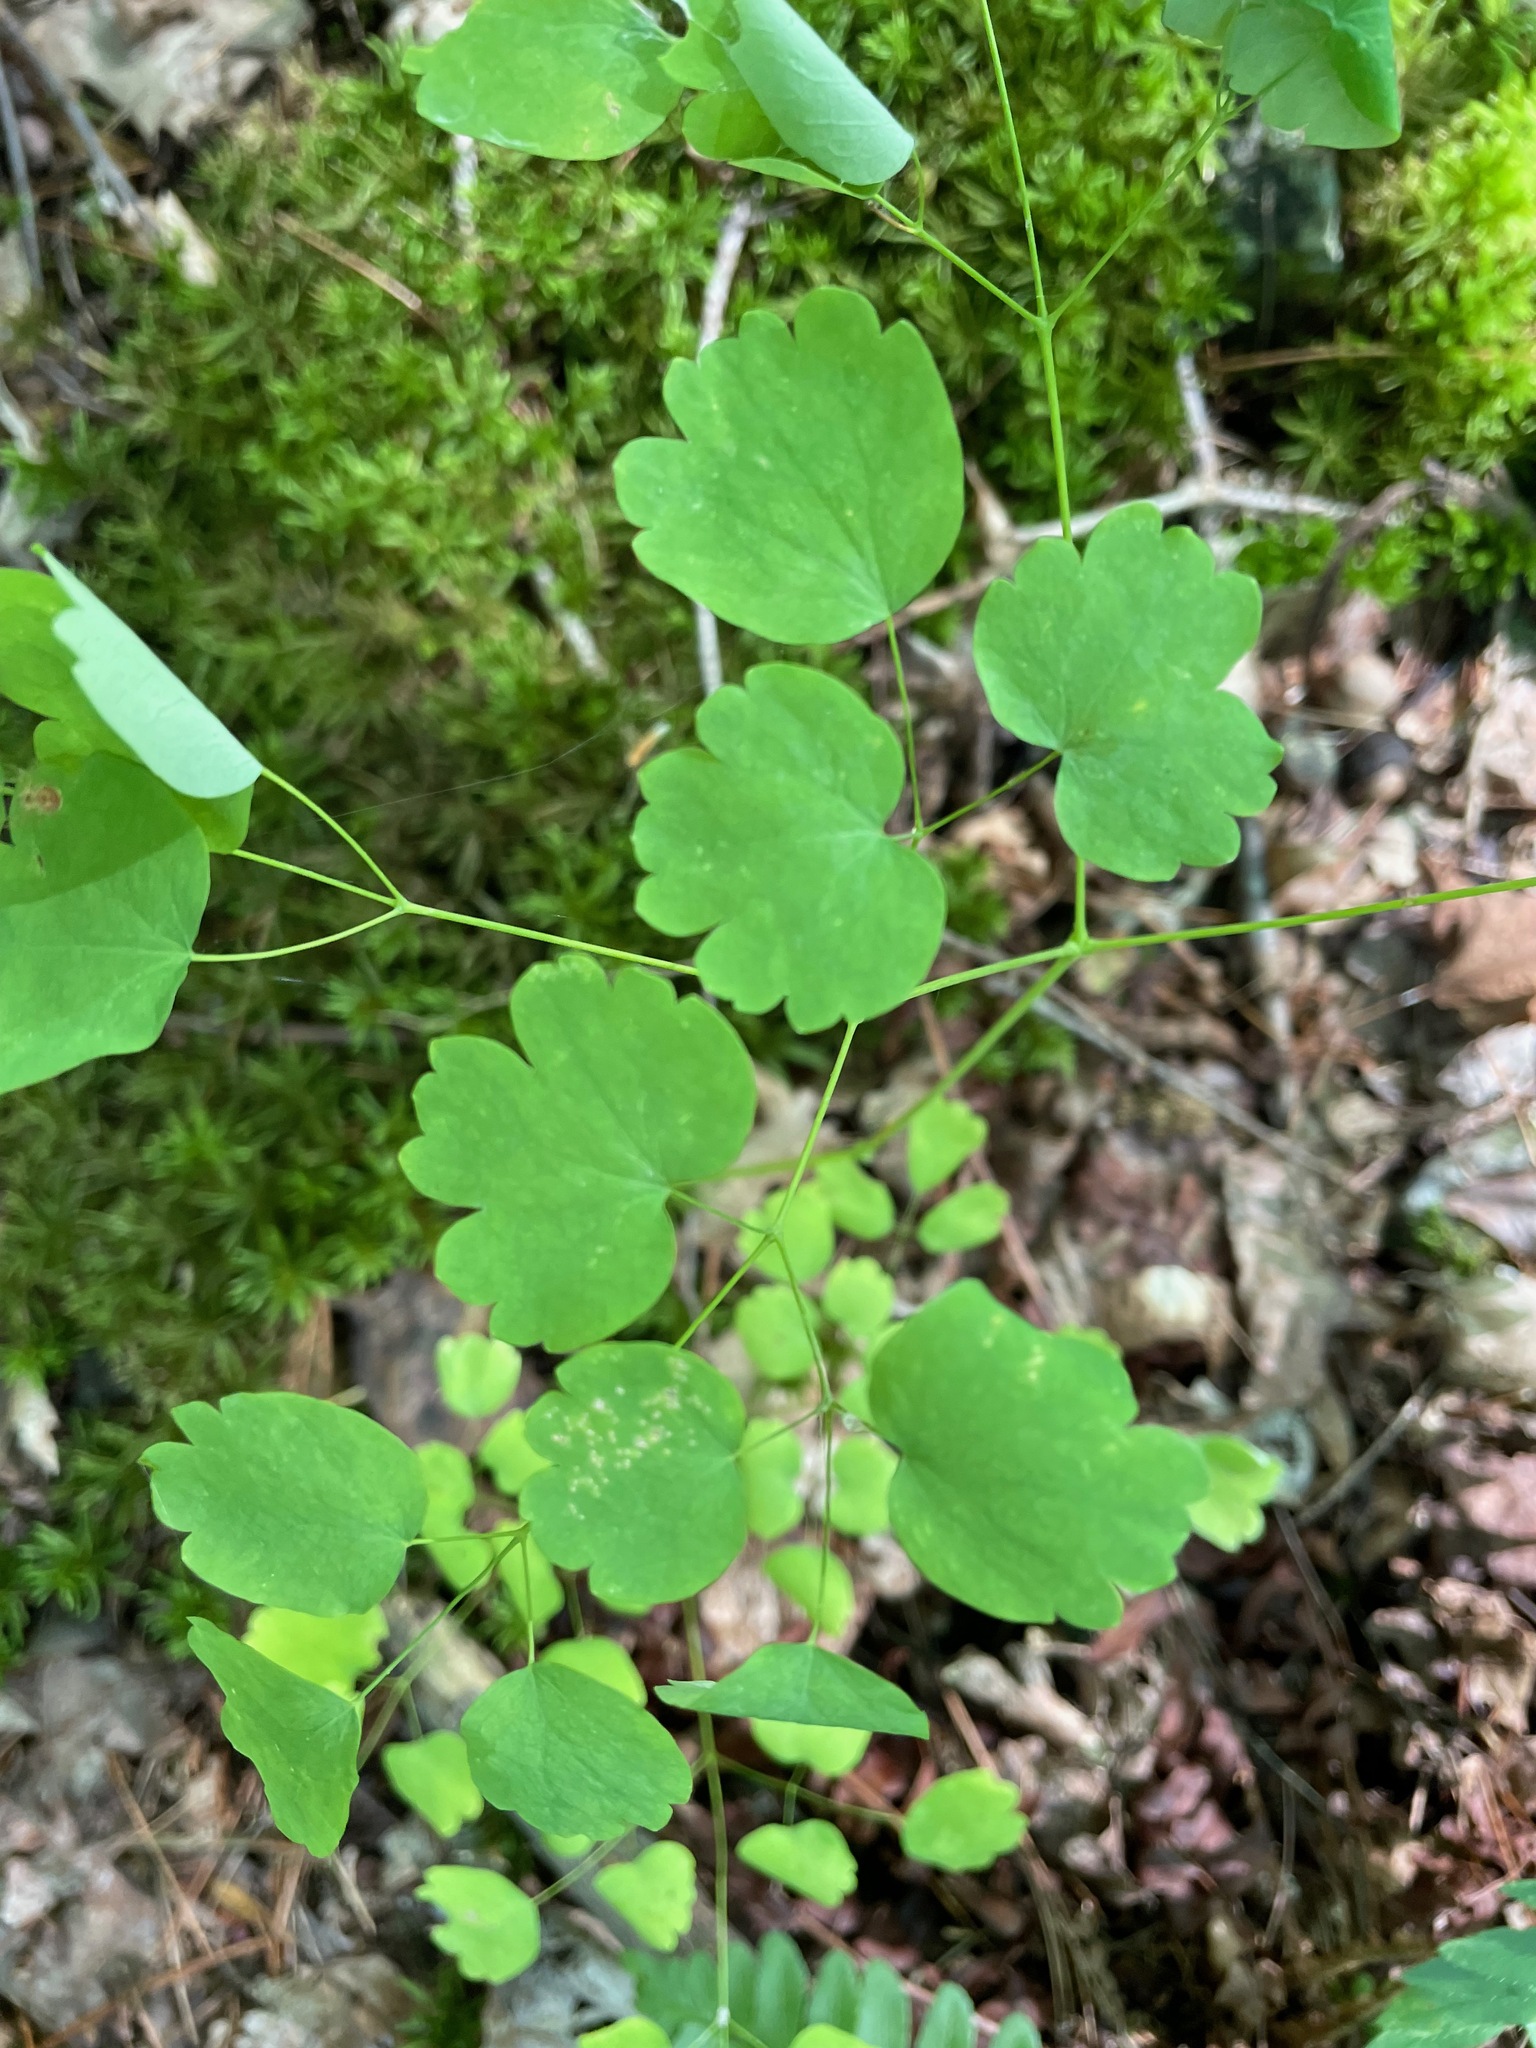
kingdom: Plantae
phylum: Tracheophyta
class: Magnoliopsida
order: Ranunculales
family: Ranunculaceae
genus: Thalictrum
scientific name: Thalictrum dioicum
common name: Early meadow-rue
